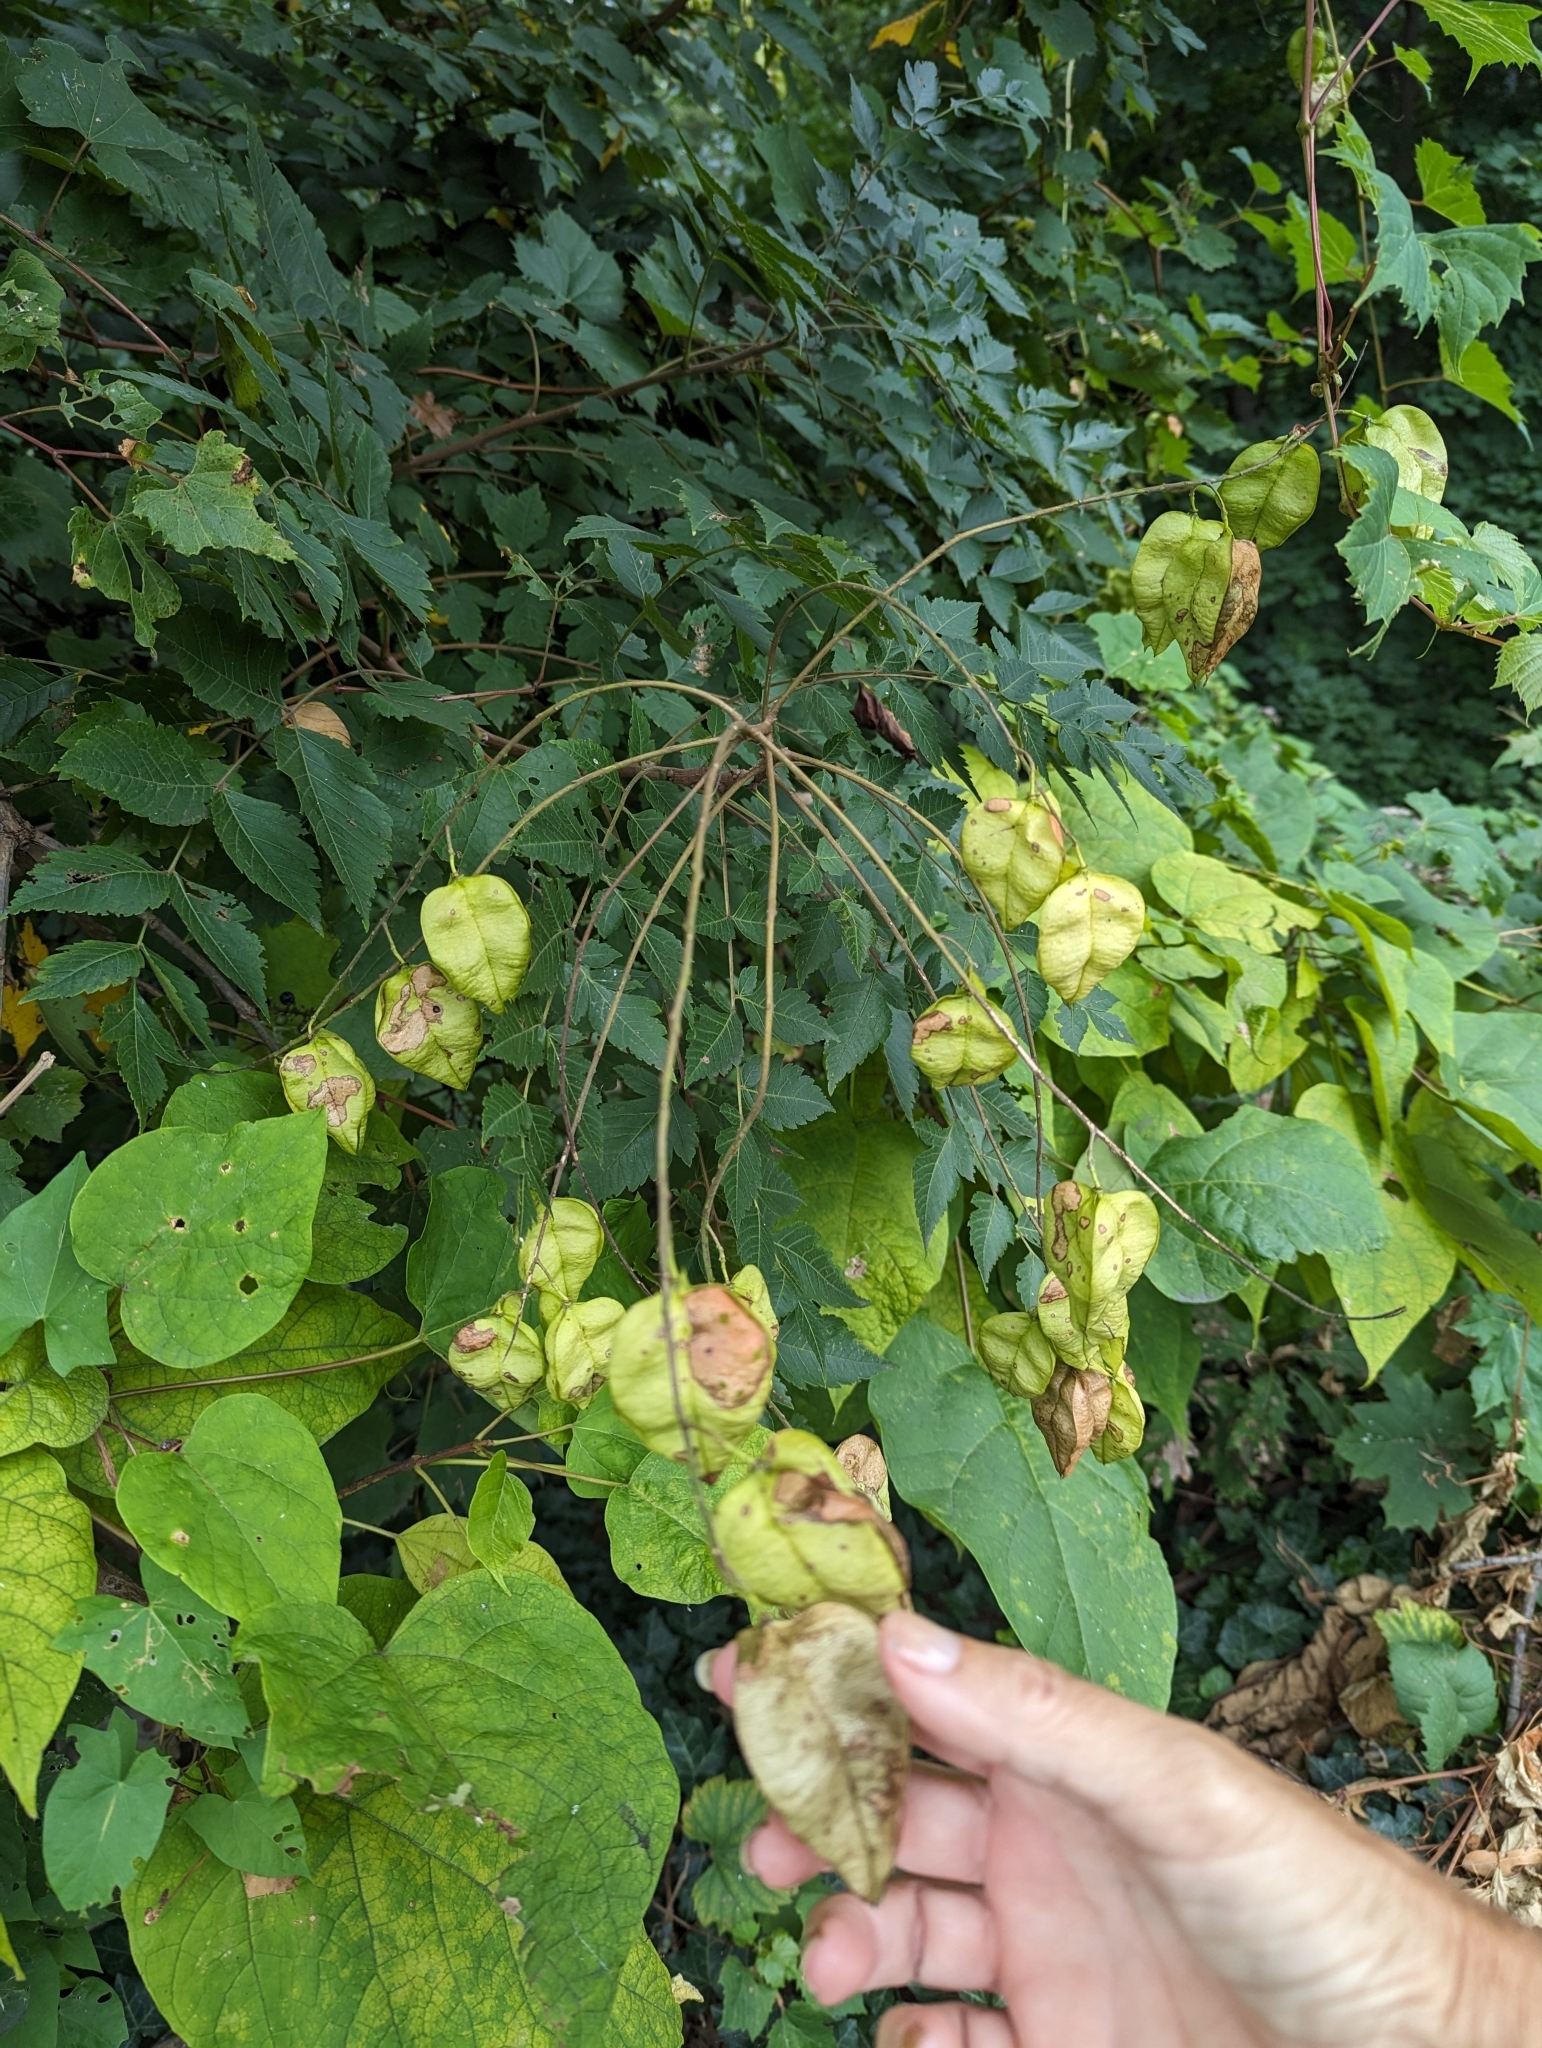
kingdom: Plantae
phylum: Tracheophyta
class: Magnoliopsida
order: Sapindales
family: Sapindaceae
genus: Koelreuteria
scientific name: Koelreuteria paniculata
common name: Pride-of-india
